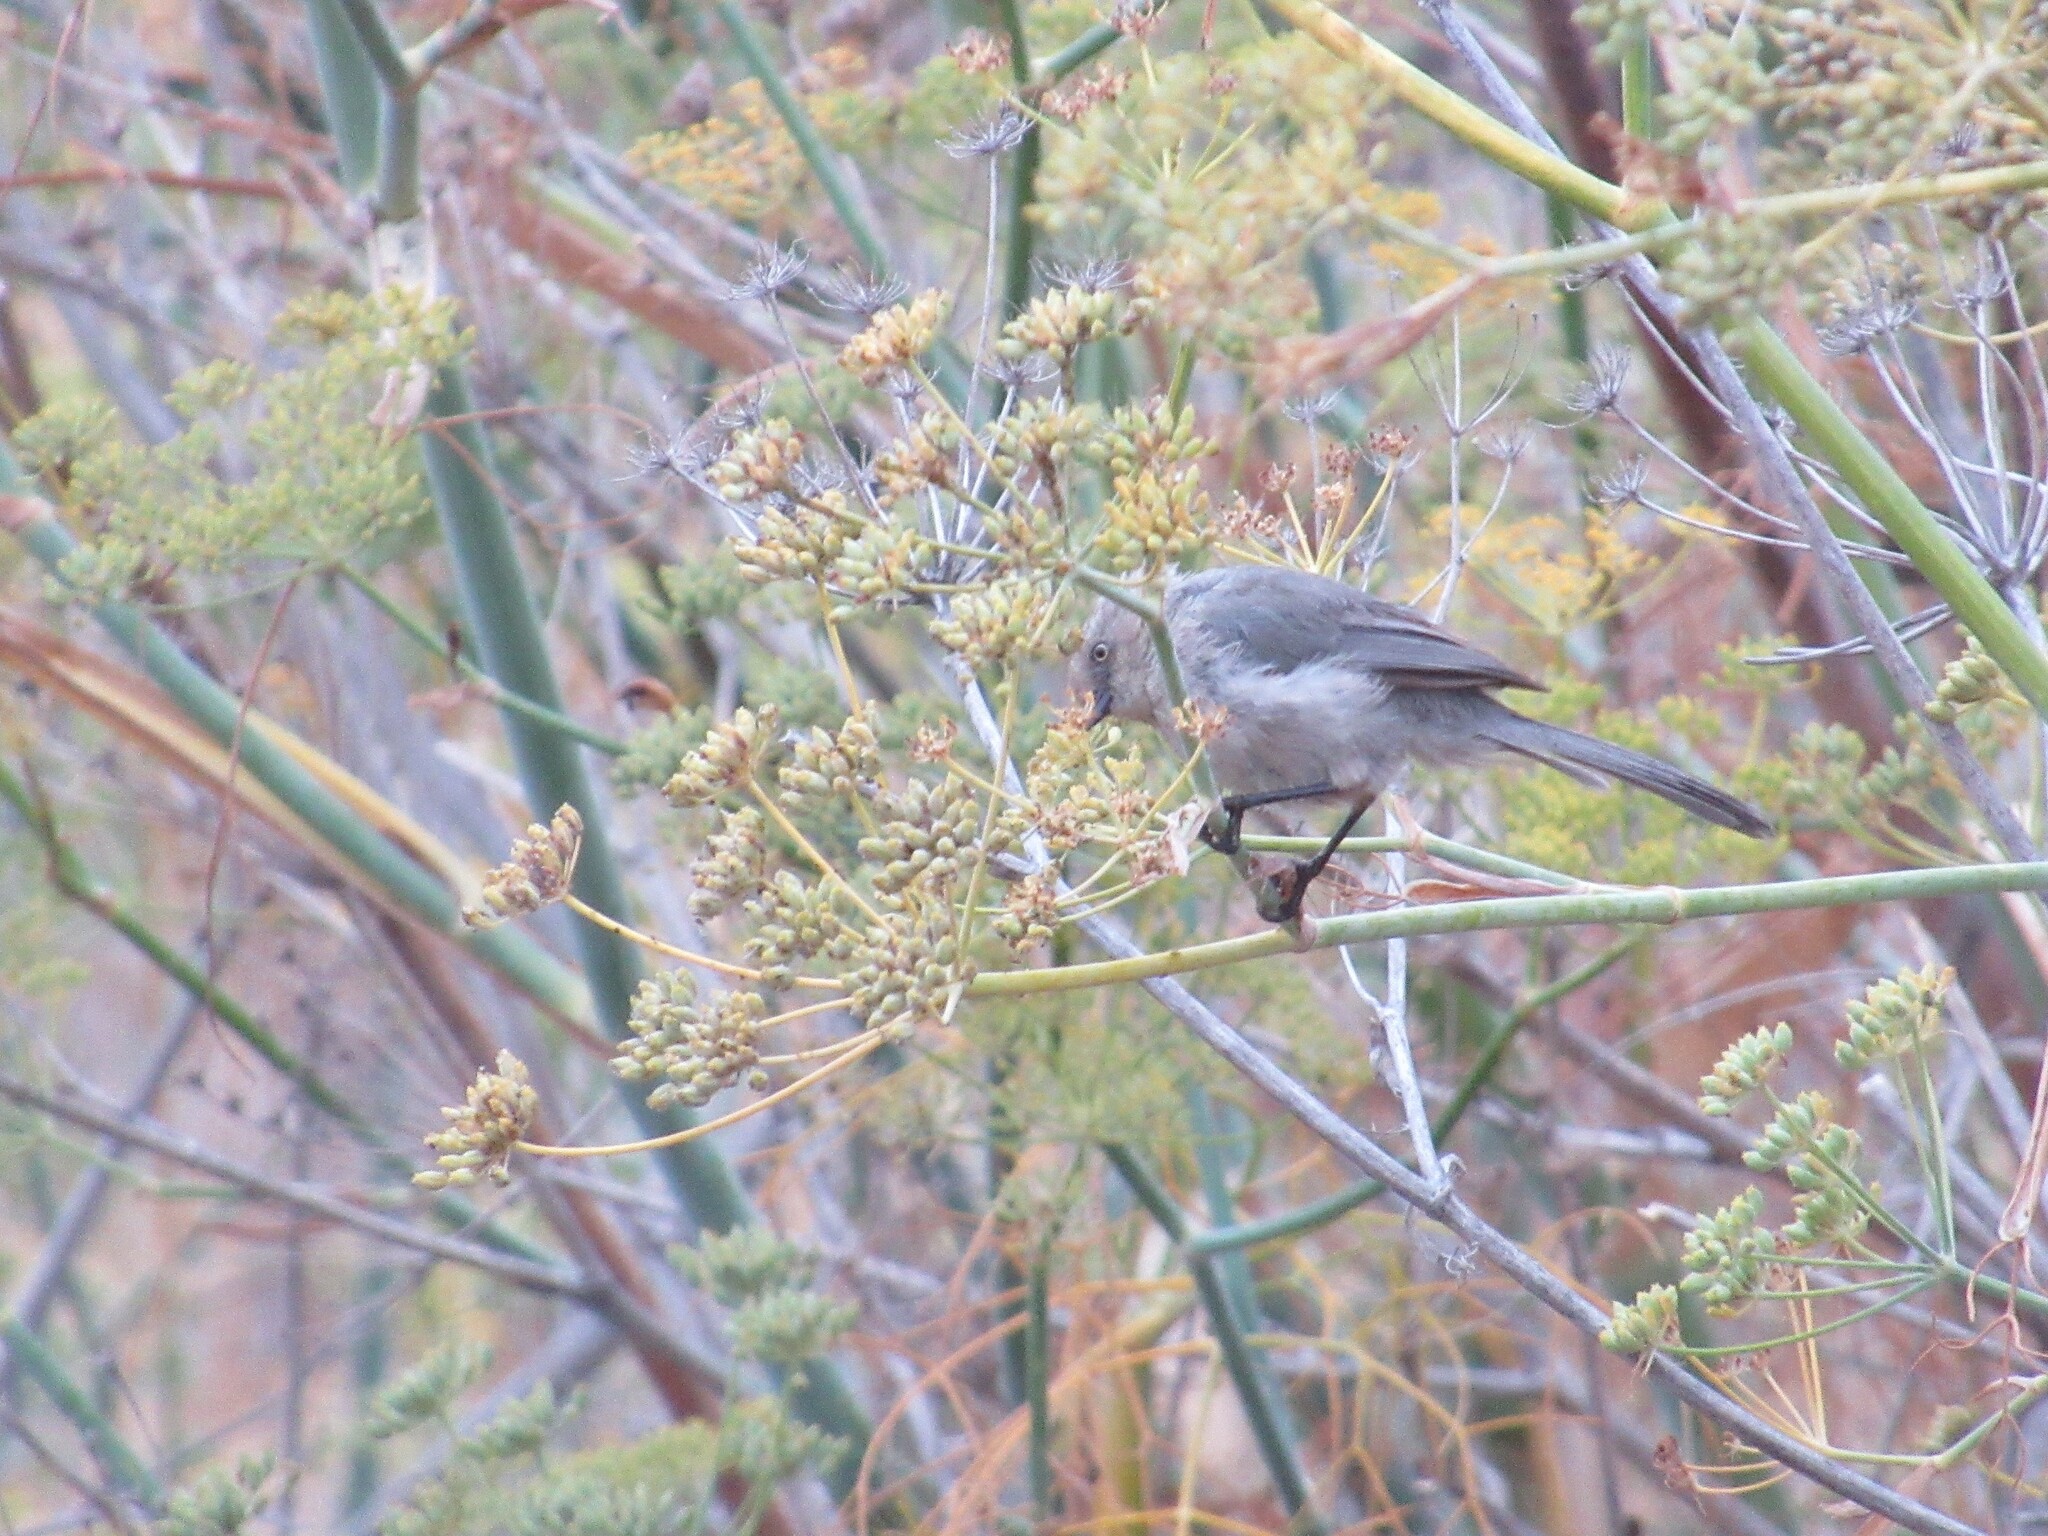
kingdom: Animalia
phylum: Chordata
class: Aves
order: Passeriformes
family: Aegithalidae
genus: Psaltriparus
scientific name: Psaltriparus minimus
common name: American bushtit
